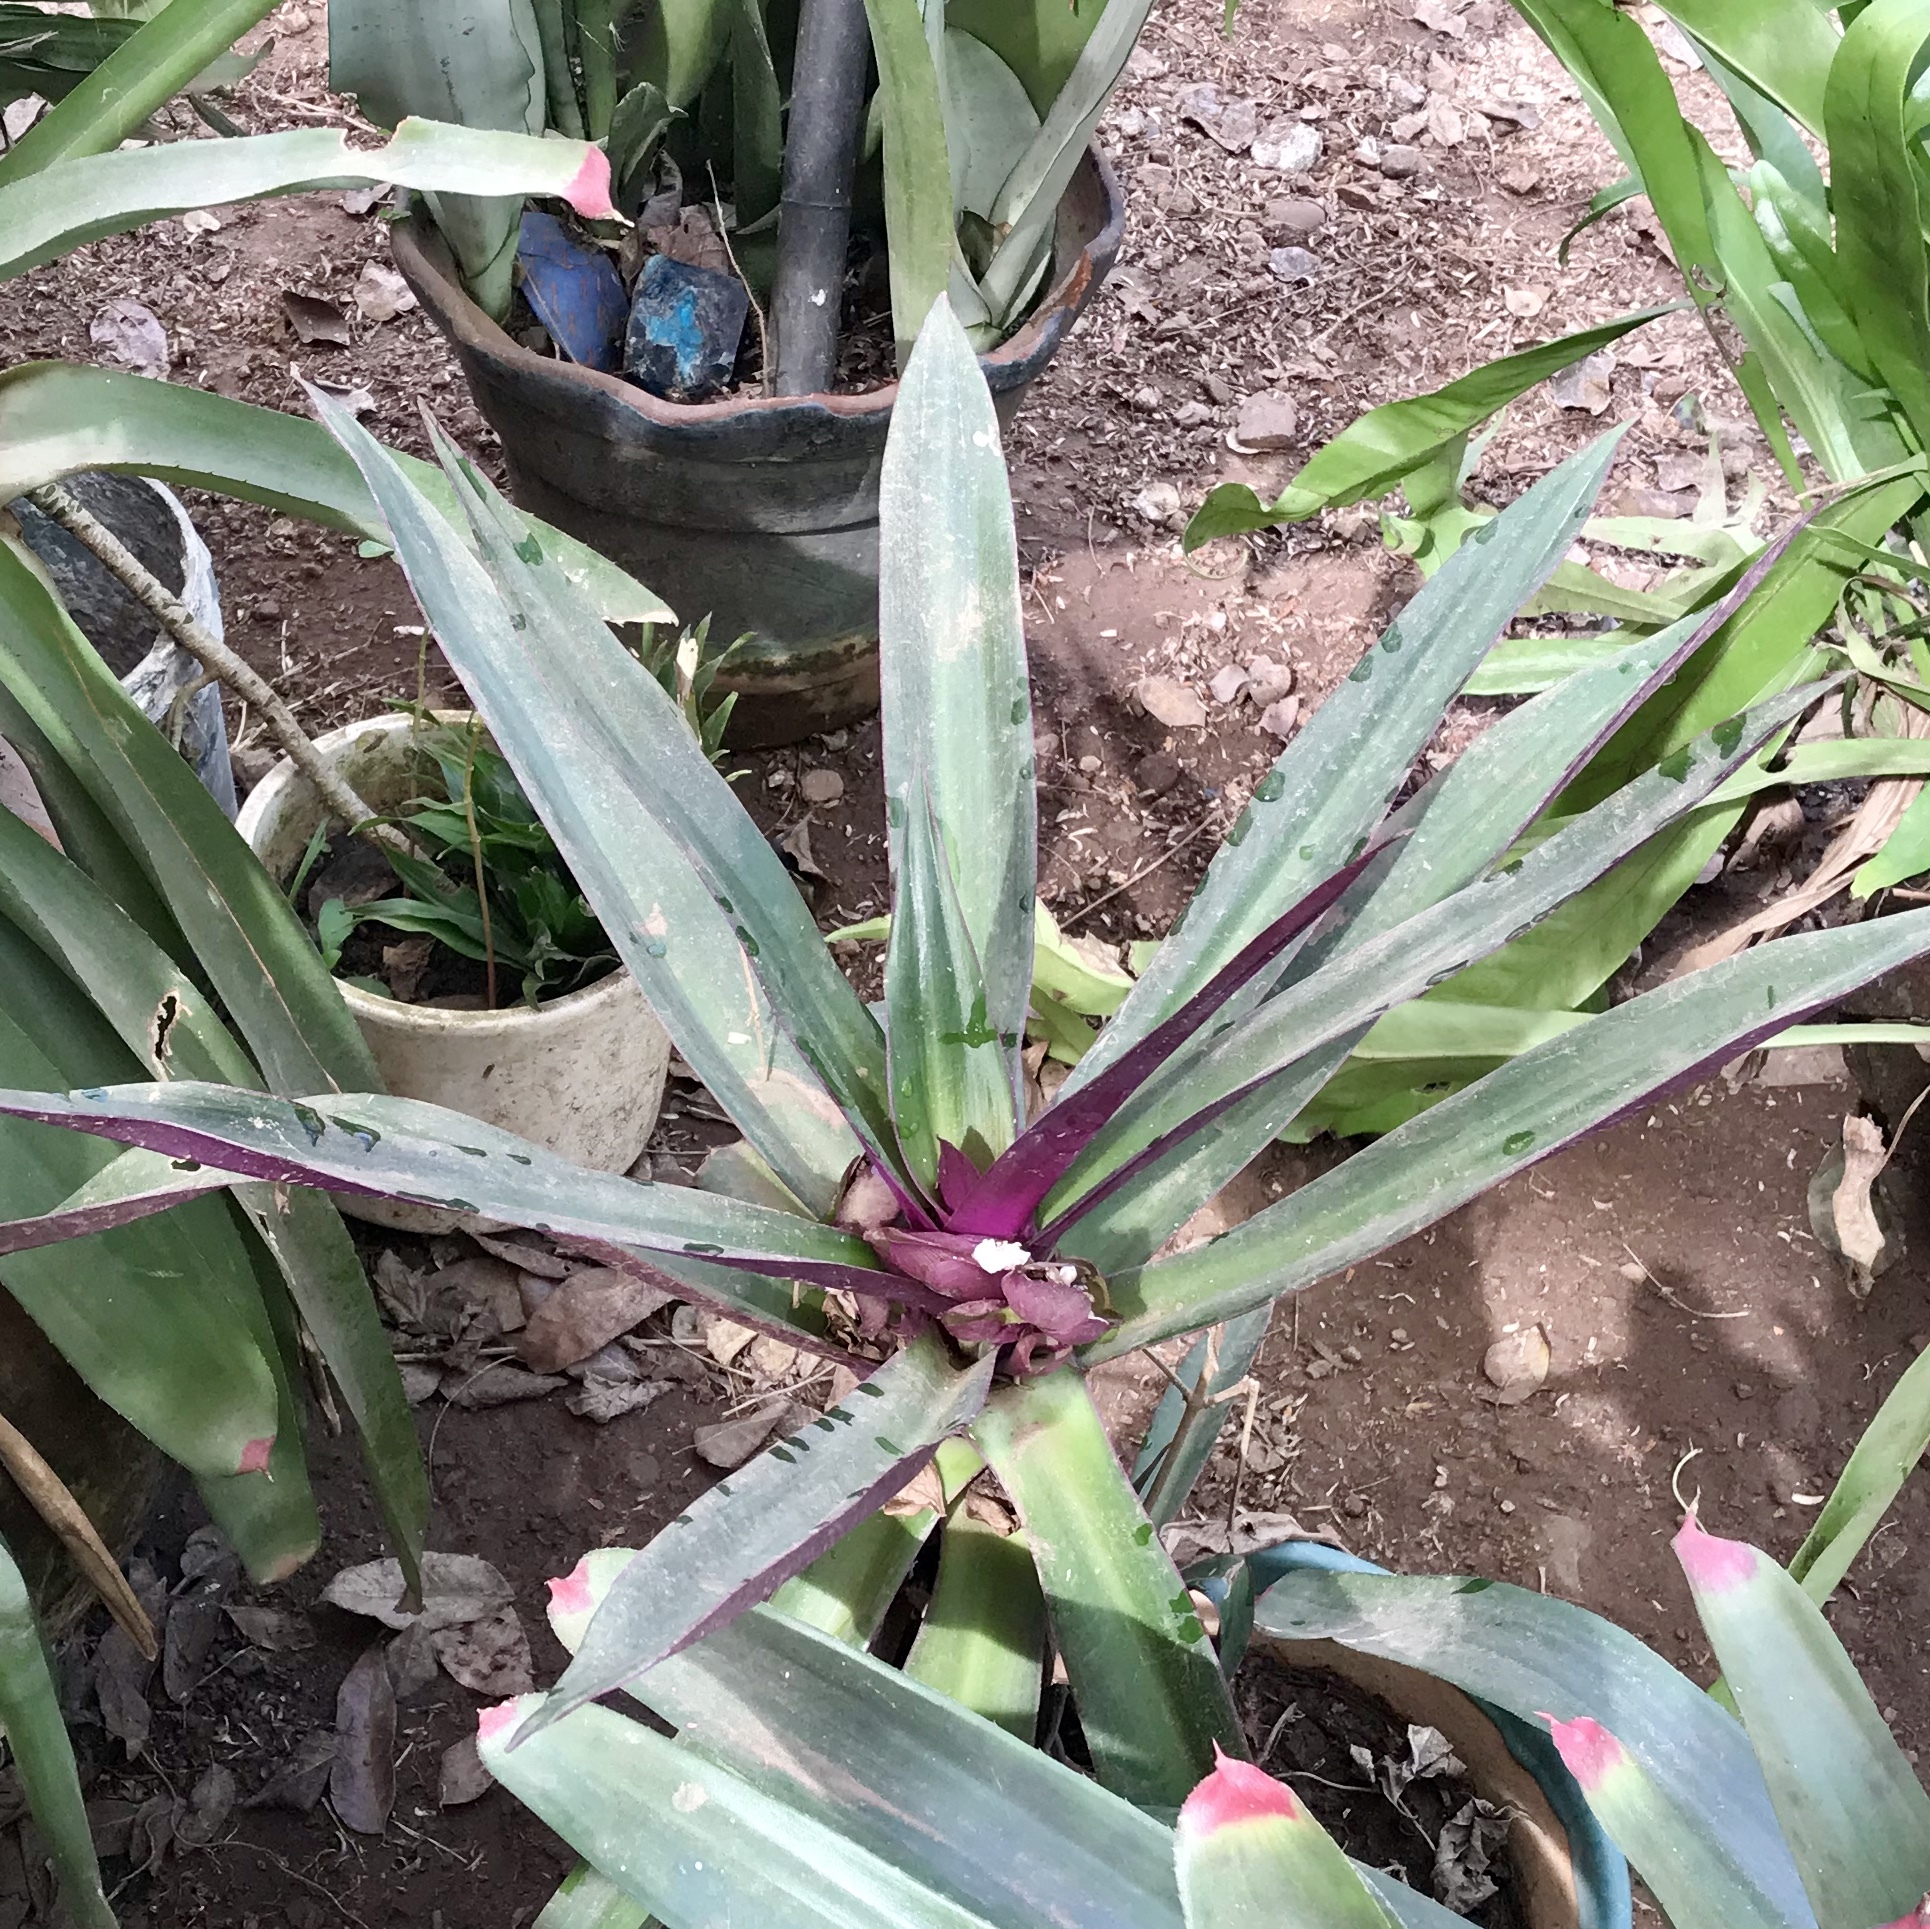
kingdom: Plantae
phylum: Tracheophyta
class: Liliopsida
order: Commelinales
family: Commelinaceae
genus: Tradescantia
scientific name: Tradescantia spathacea
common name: Boatlily
